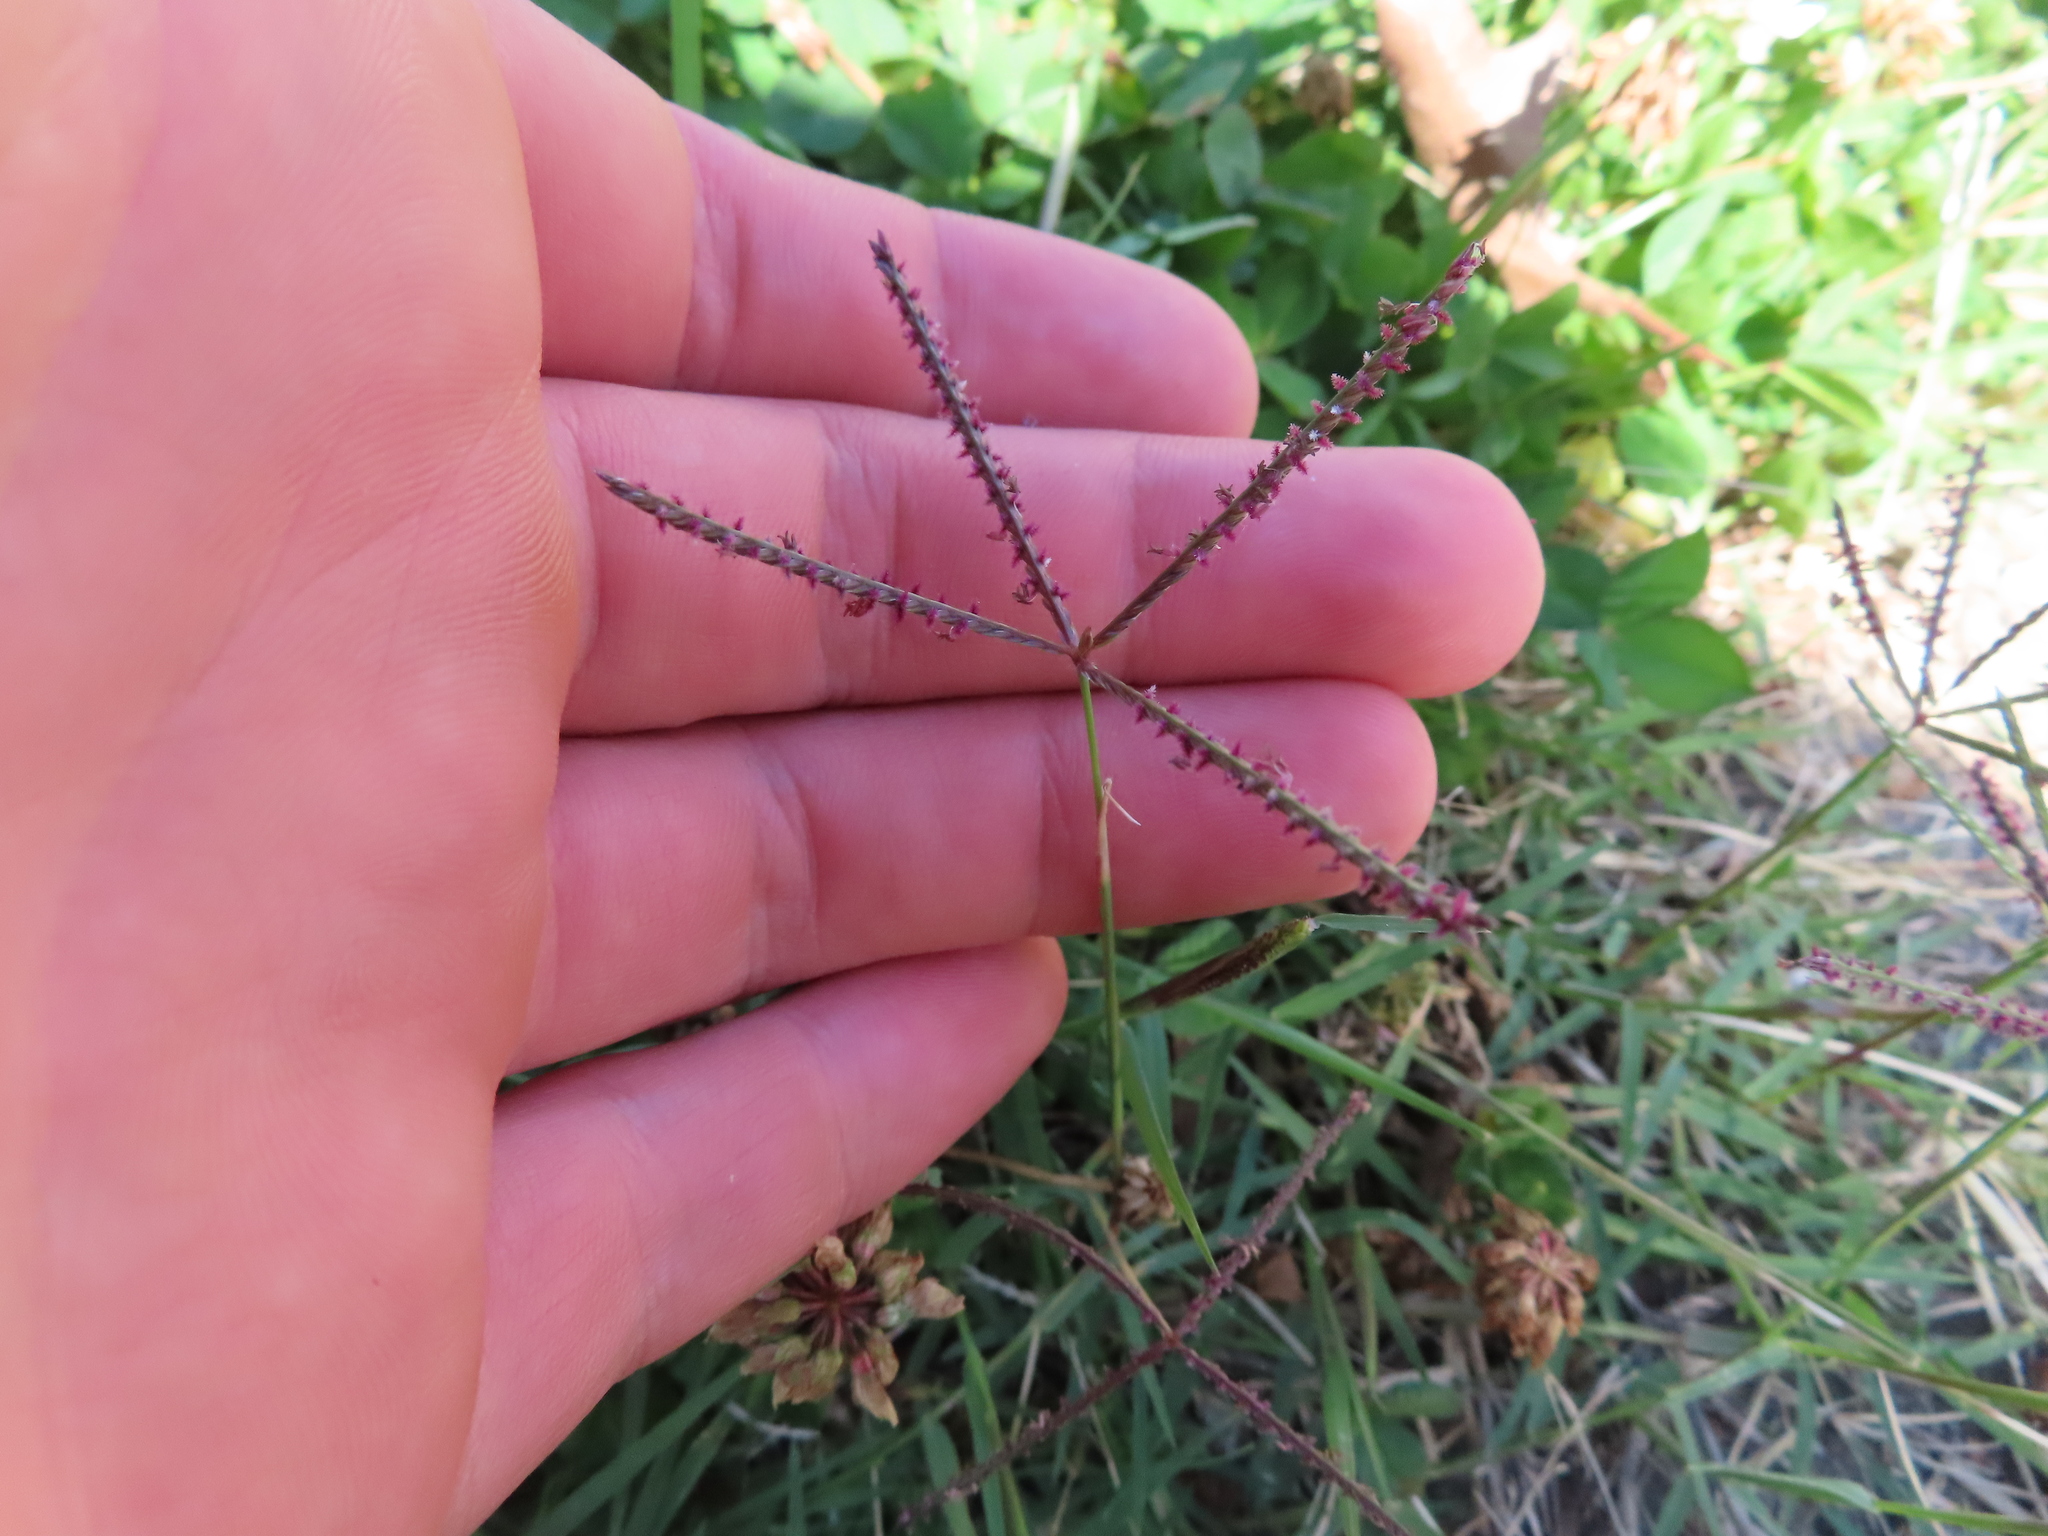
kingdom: Plantae
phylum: Tracheophyta
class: Liliopsida
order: Poales
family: Poaceae
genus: Cynodon
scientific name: Cynodon dactylon
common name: Bermuda grass
